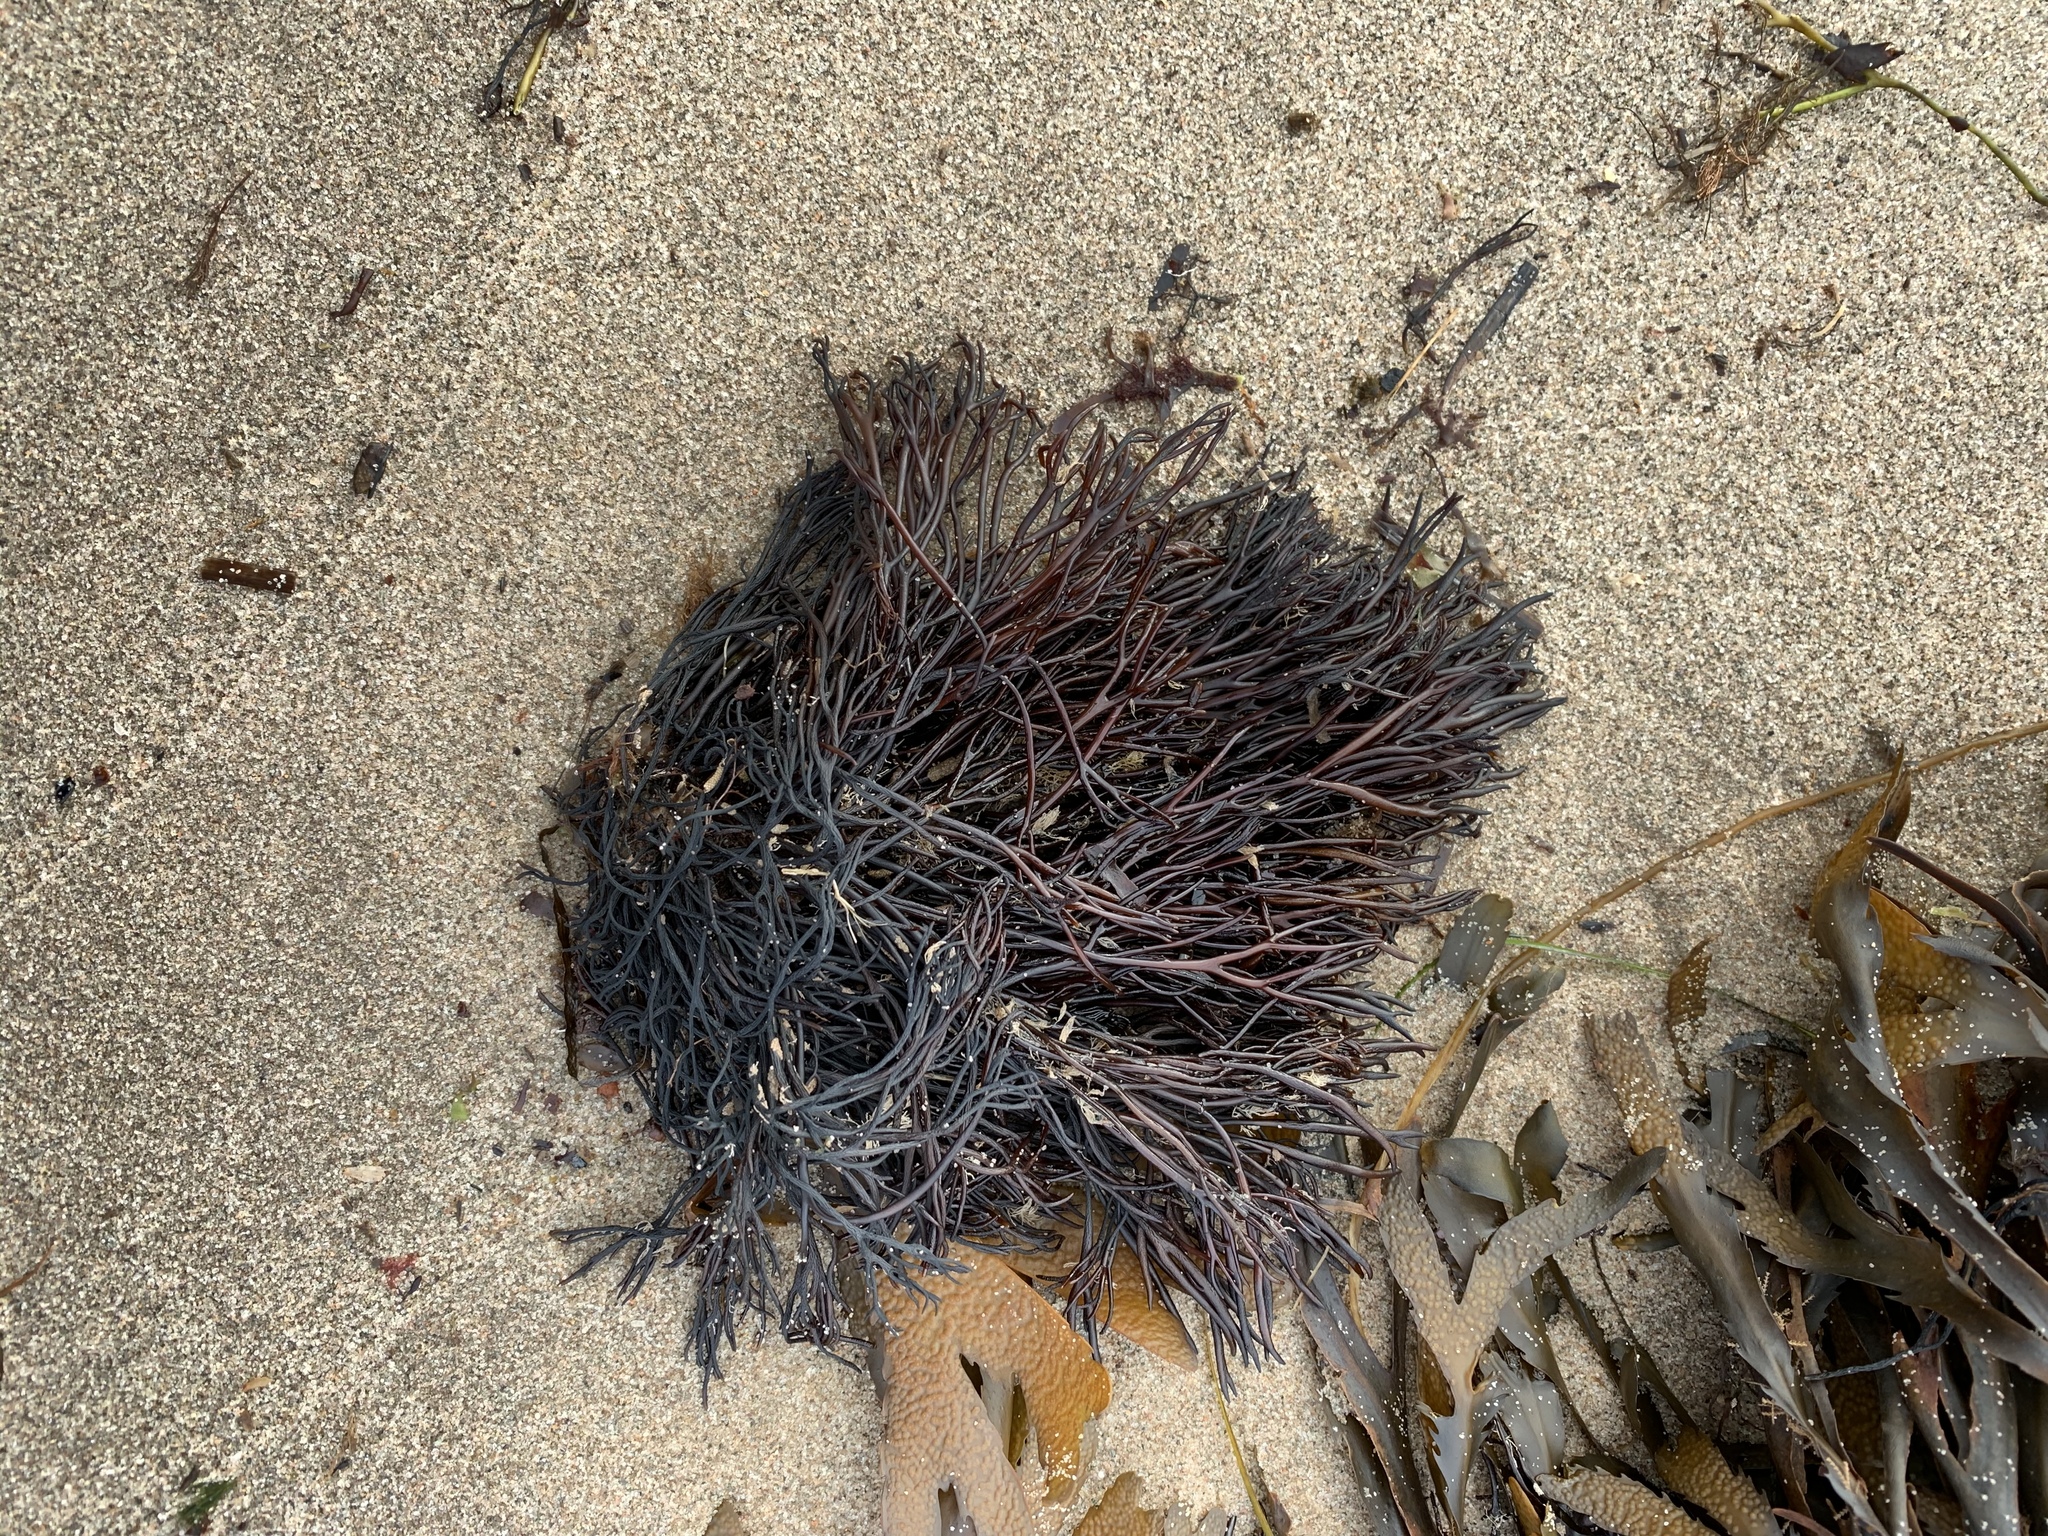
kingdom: Plantae
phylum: Rhodophyta
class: Florideophyceae
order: Gigartinales
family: Polyidaceae
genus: Polyides
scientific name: Polyides rotunda
